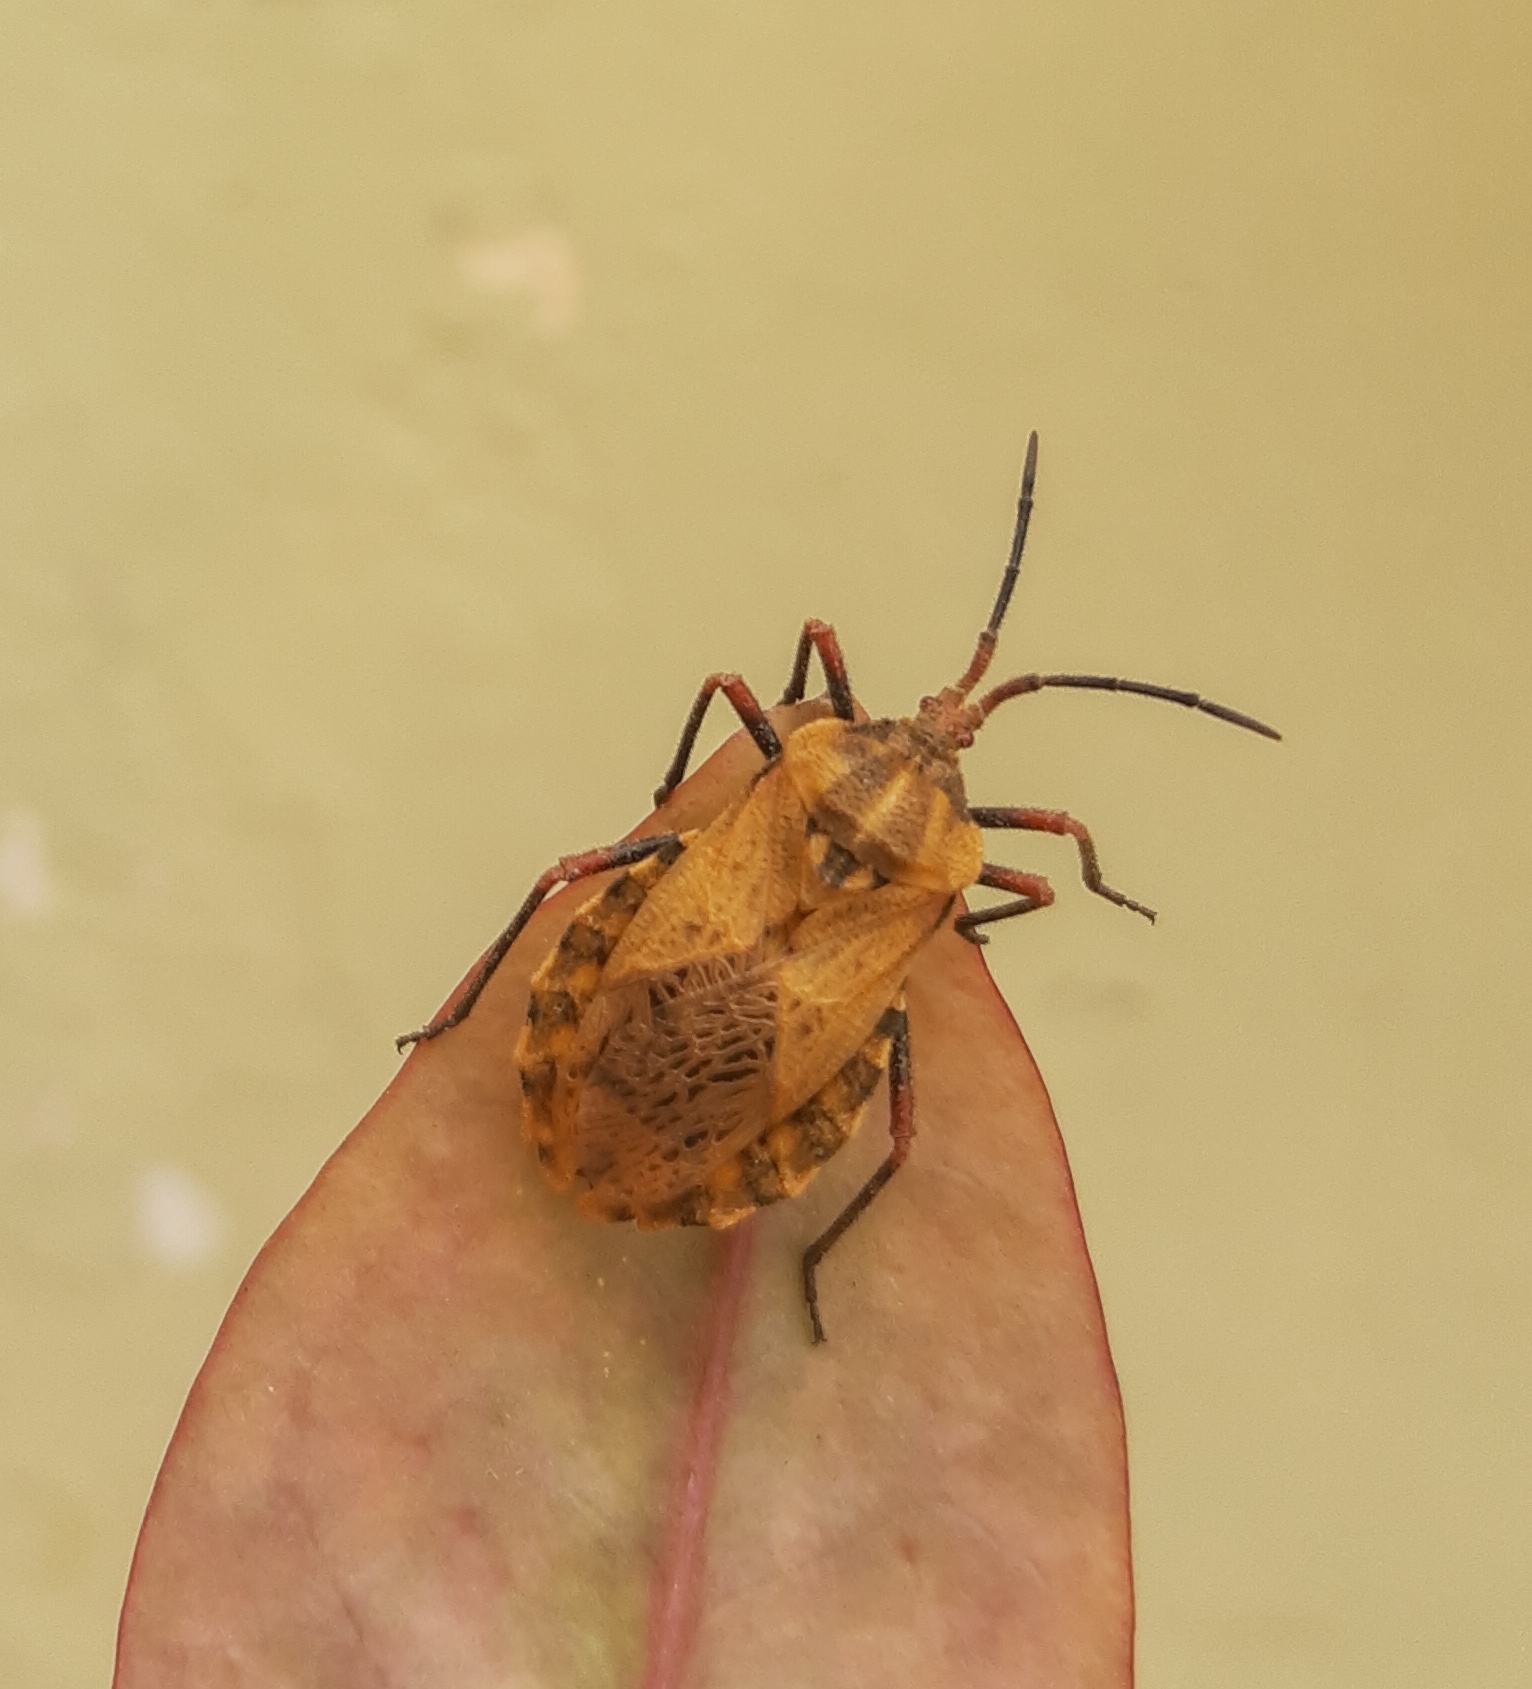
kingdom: Animalia
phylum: Arthropoda
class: Insecta
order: Hemiptera
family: Coreidae
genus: Spartocera
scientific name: Spartocera fusca
